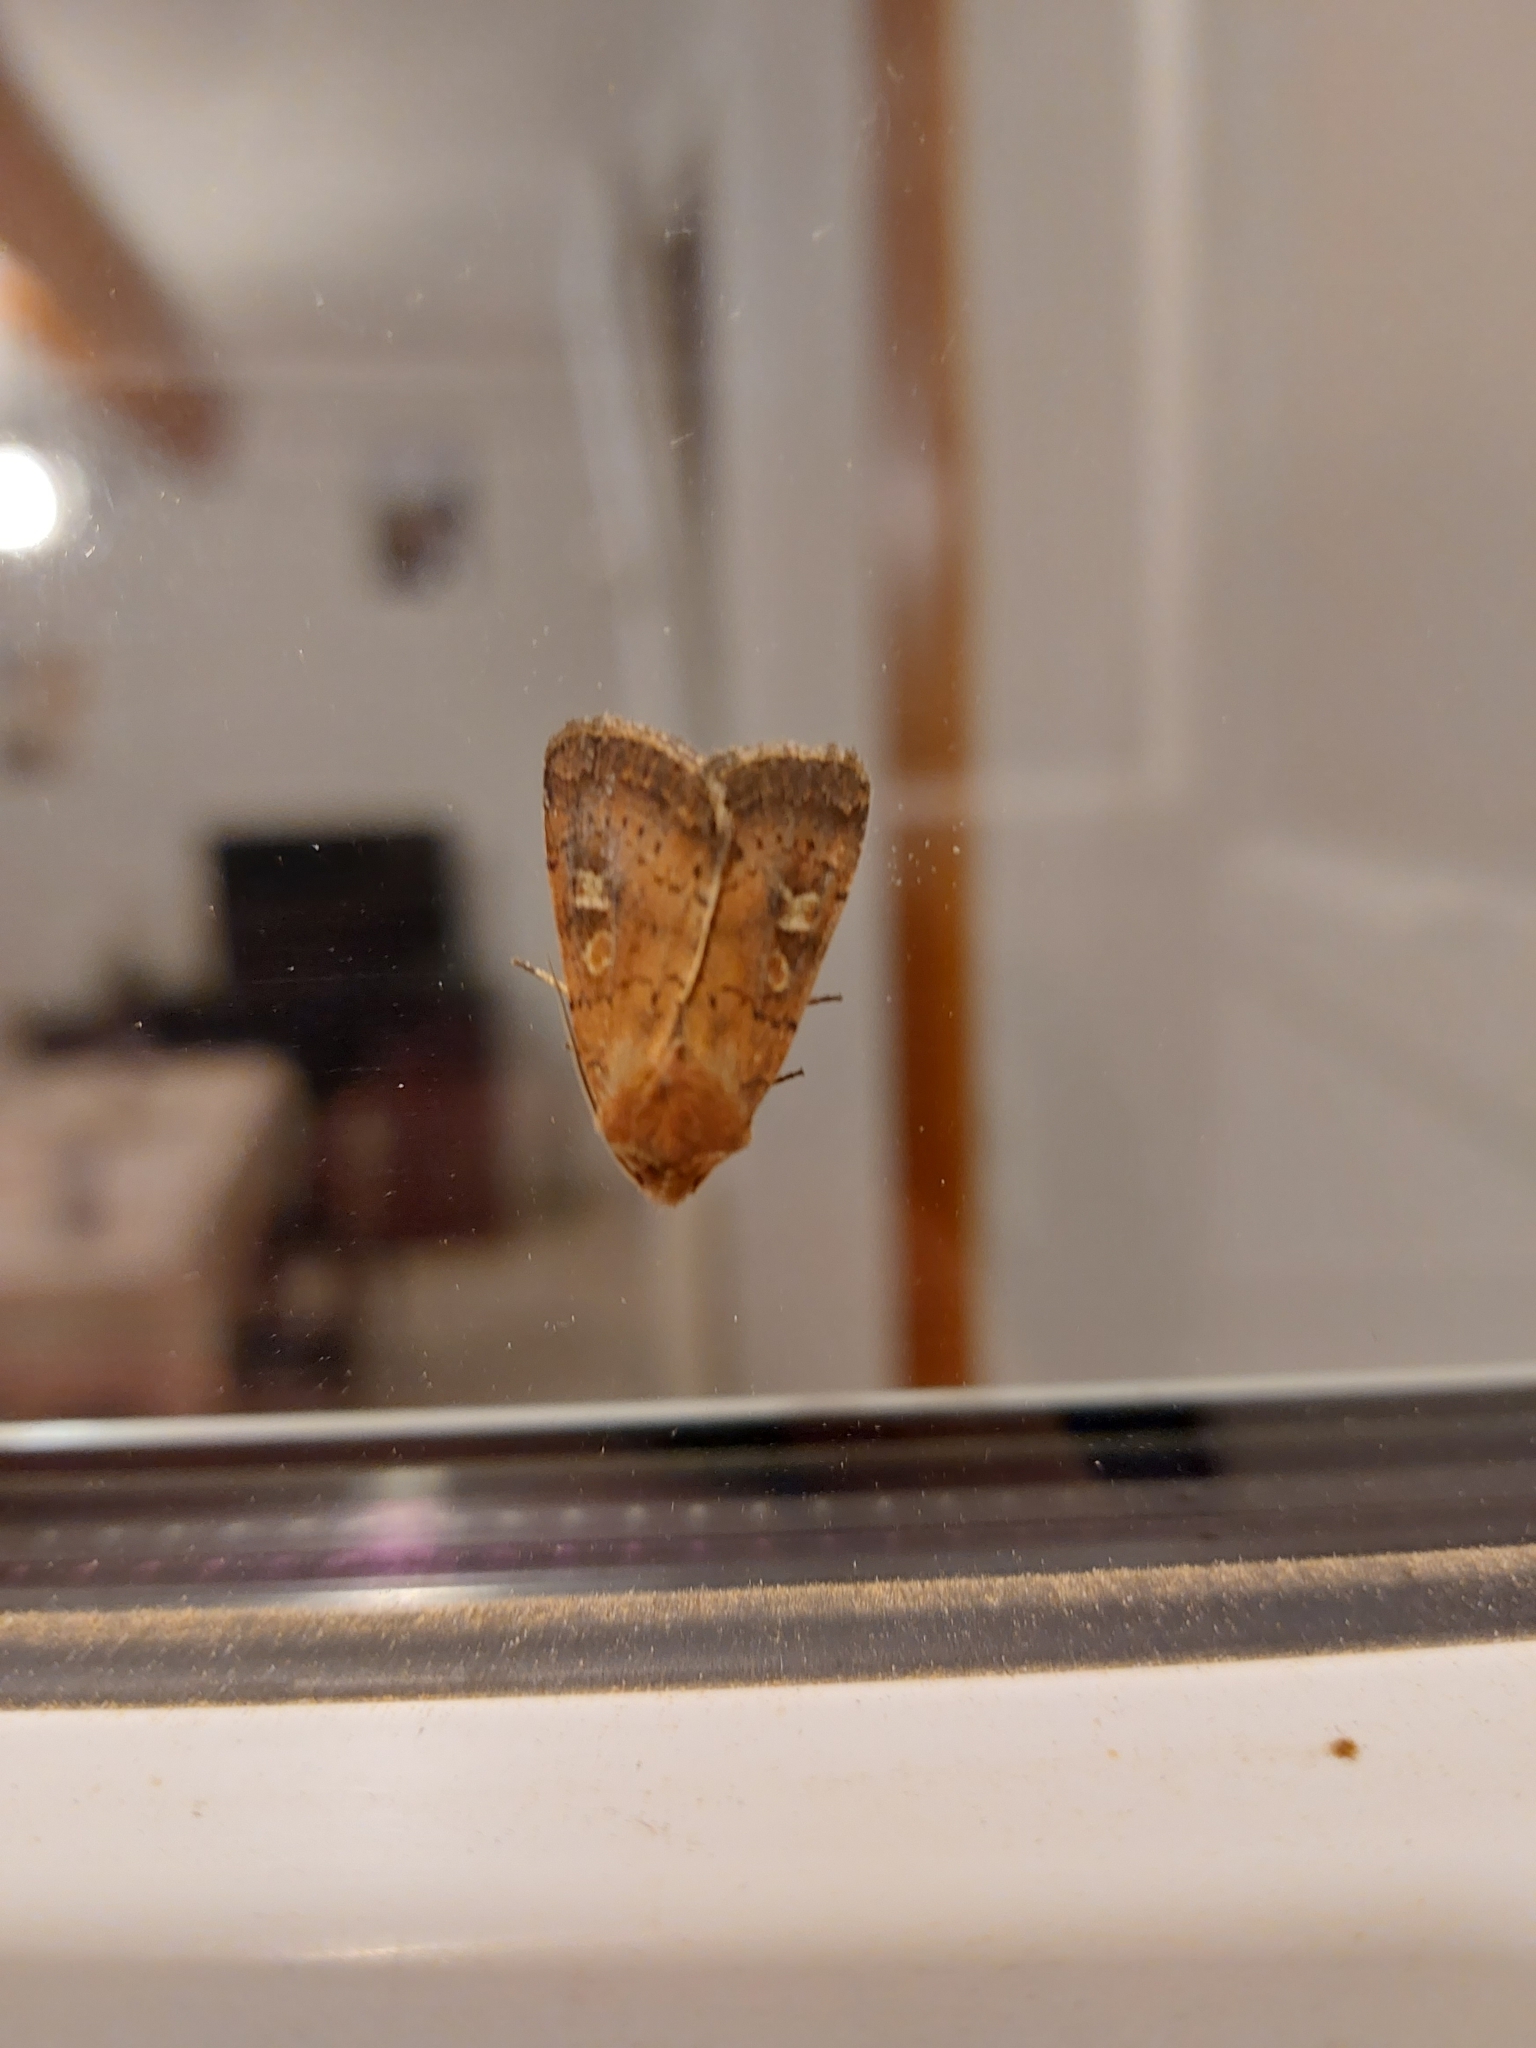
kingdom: Animalia
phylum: Arthropoda
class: Insecta
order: Lepidoptera
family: Noctuidae
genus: Xestia
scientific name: Xestia xanthographa
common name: Square-spot rustic
